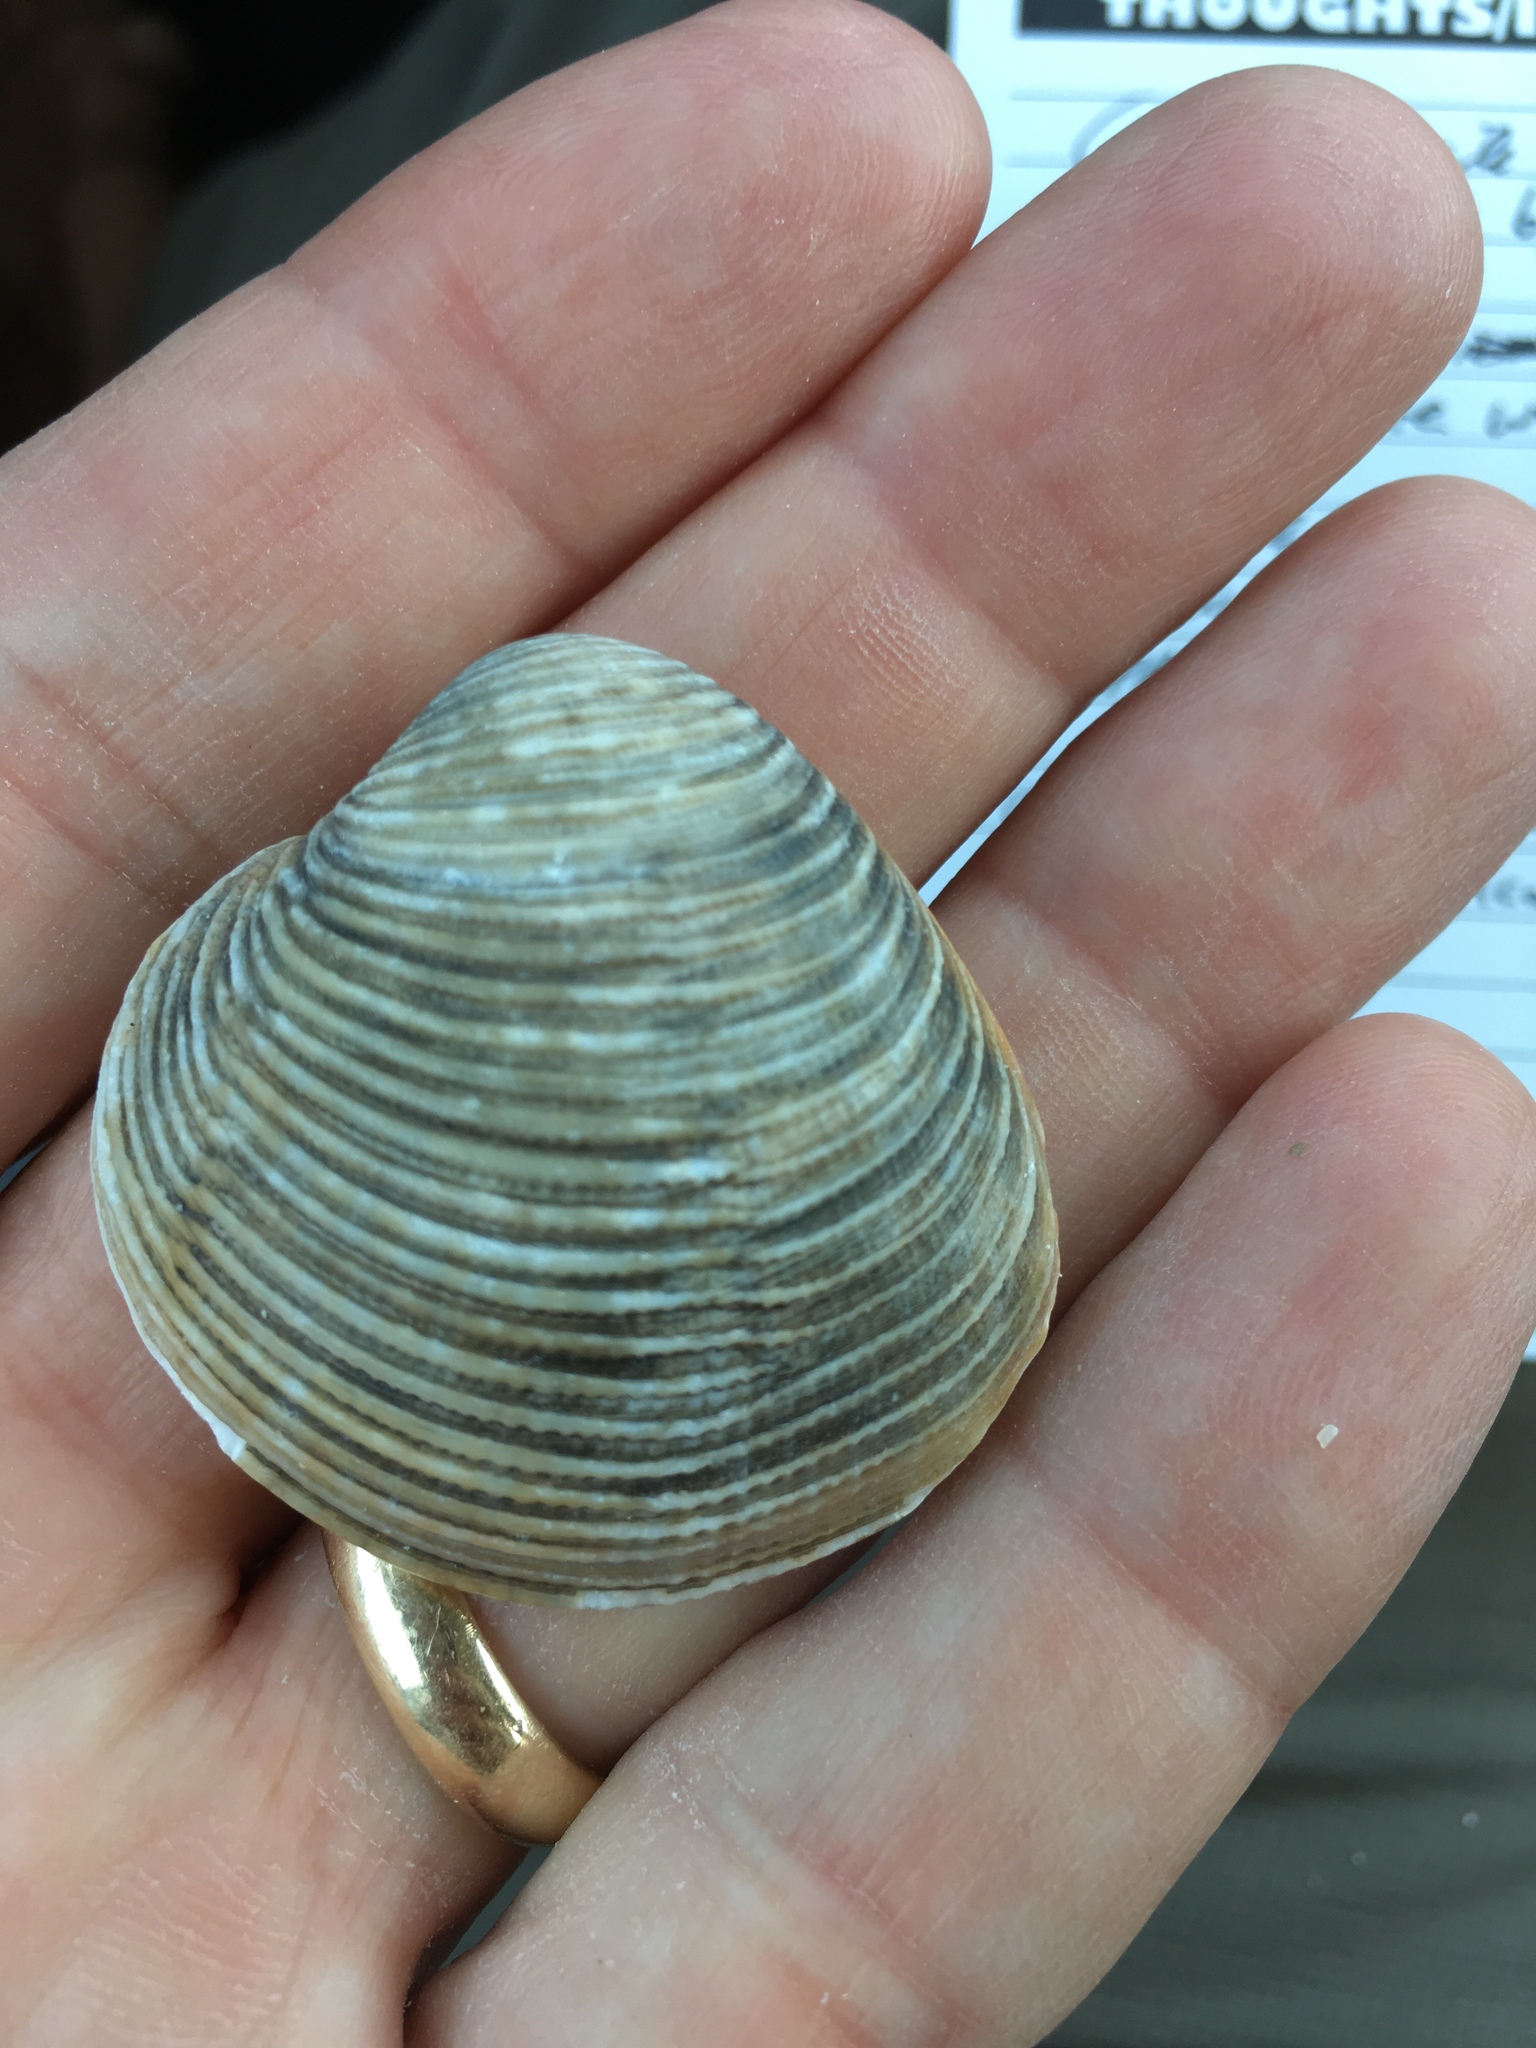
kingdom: Animalia
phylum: Mollusca
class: Bivalvia
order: Venerida
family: Veneridae
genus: Chionopsis
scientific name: Chionopsis intapurpurea
